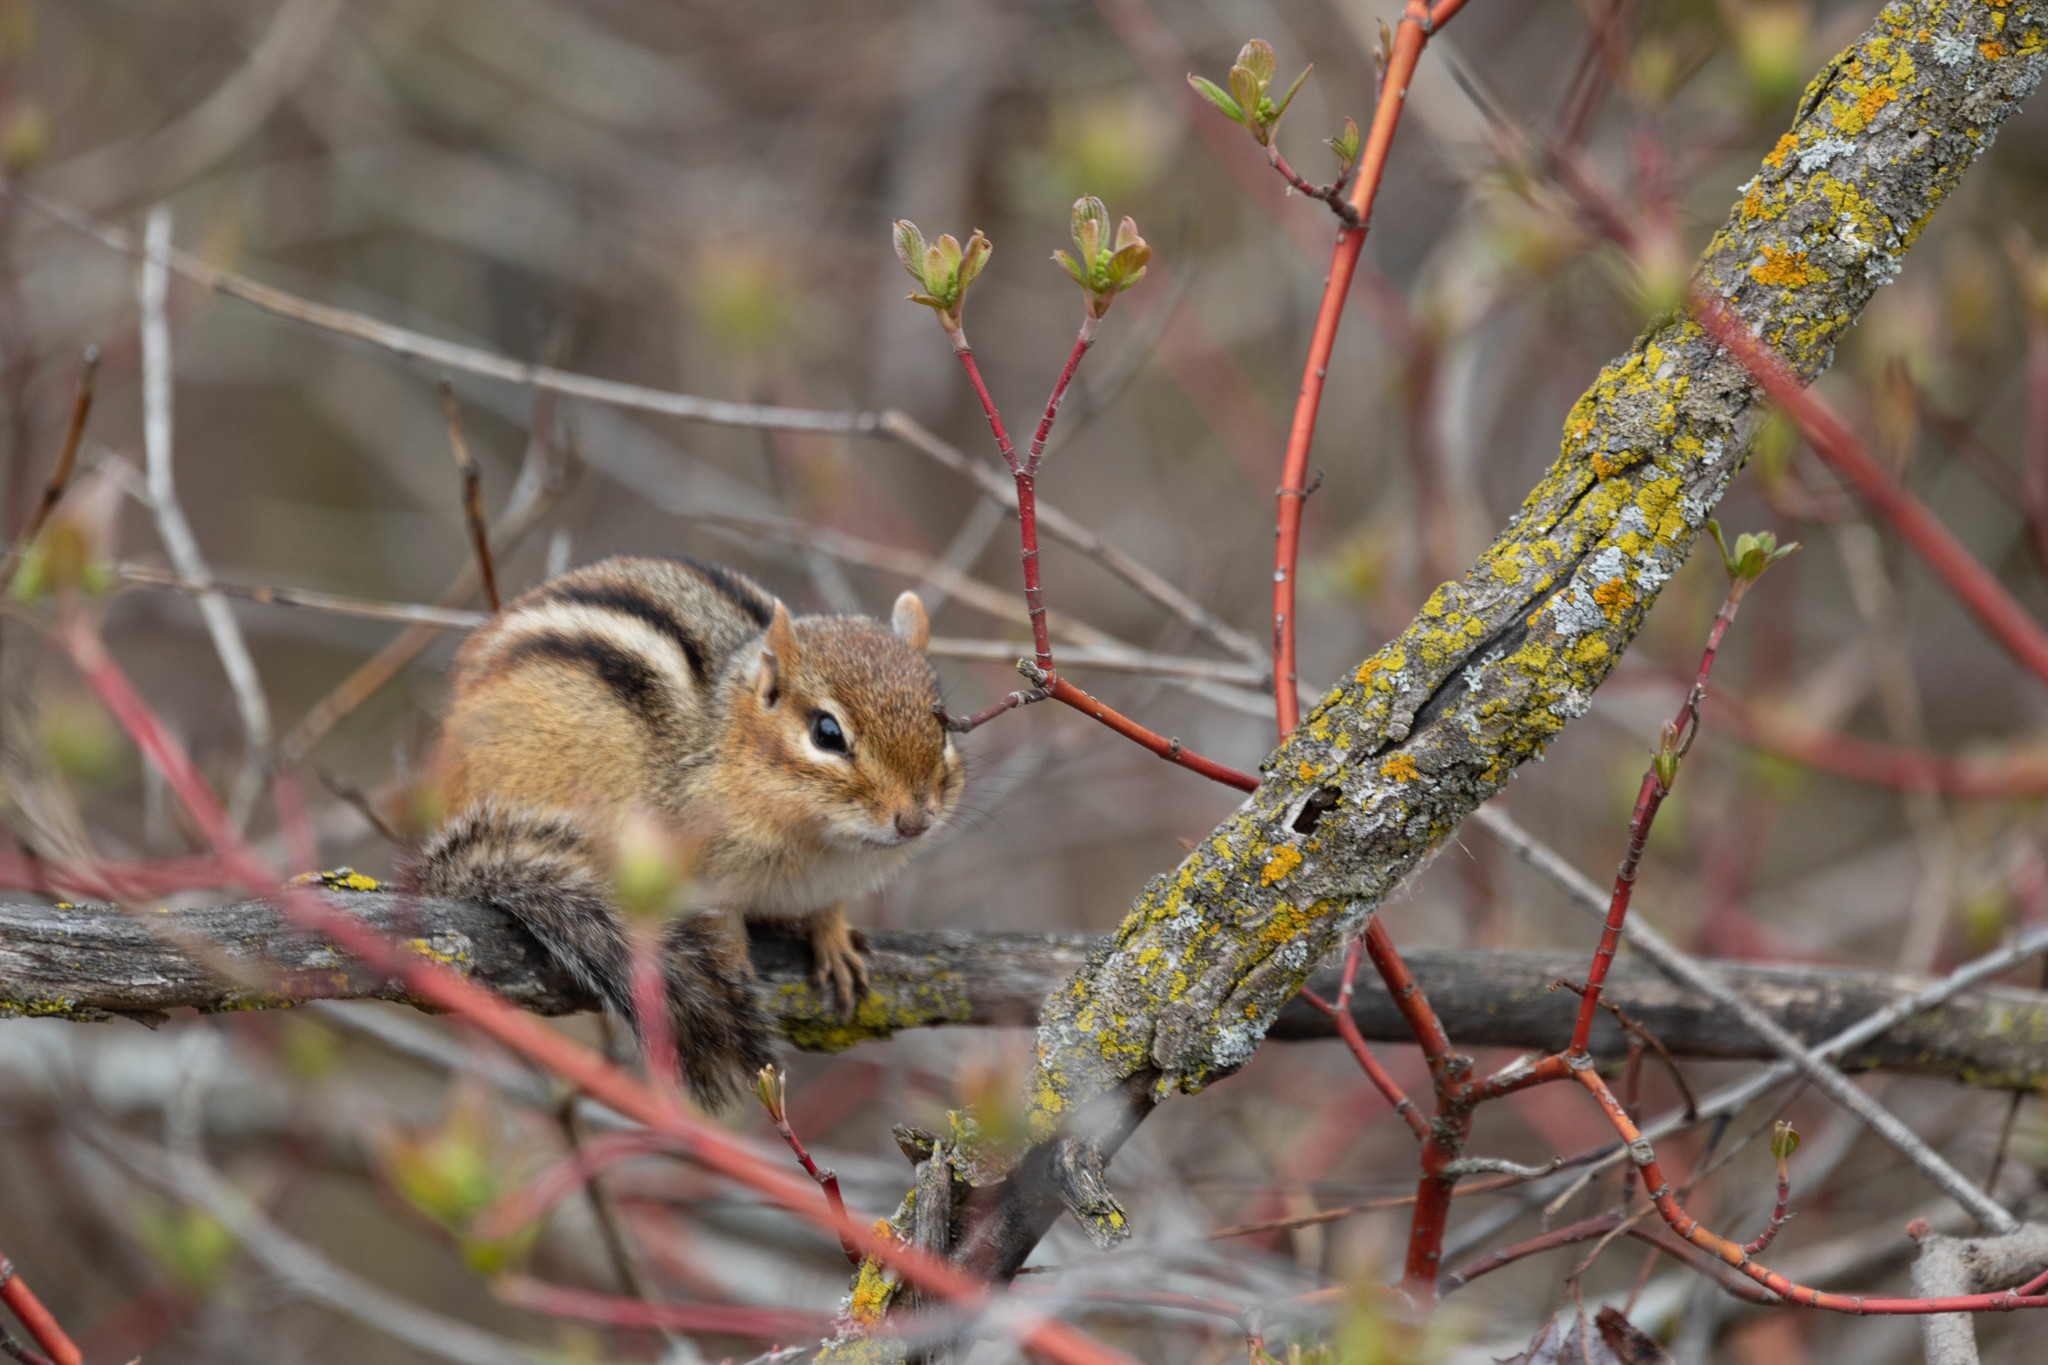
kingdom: Animalia
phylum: Chordata
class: Mammalia
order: Rodentia
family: Sciuridae
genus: Tamias
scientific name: Tamias striatus
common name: Eastern chipmunk
